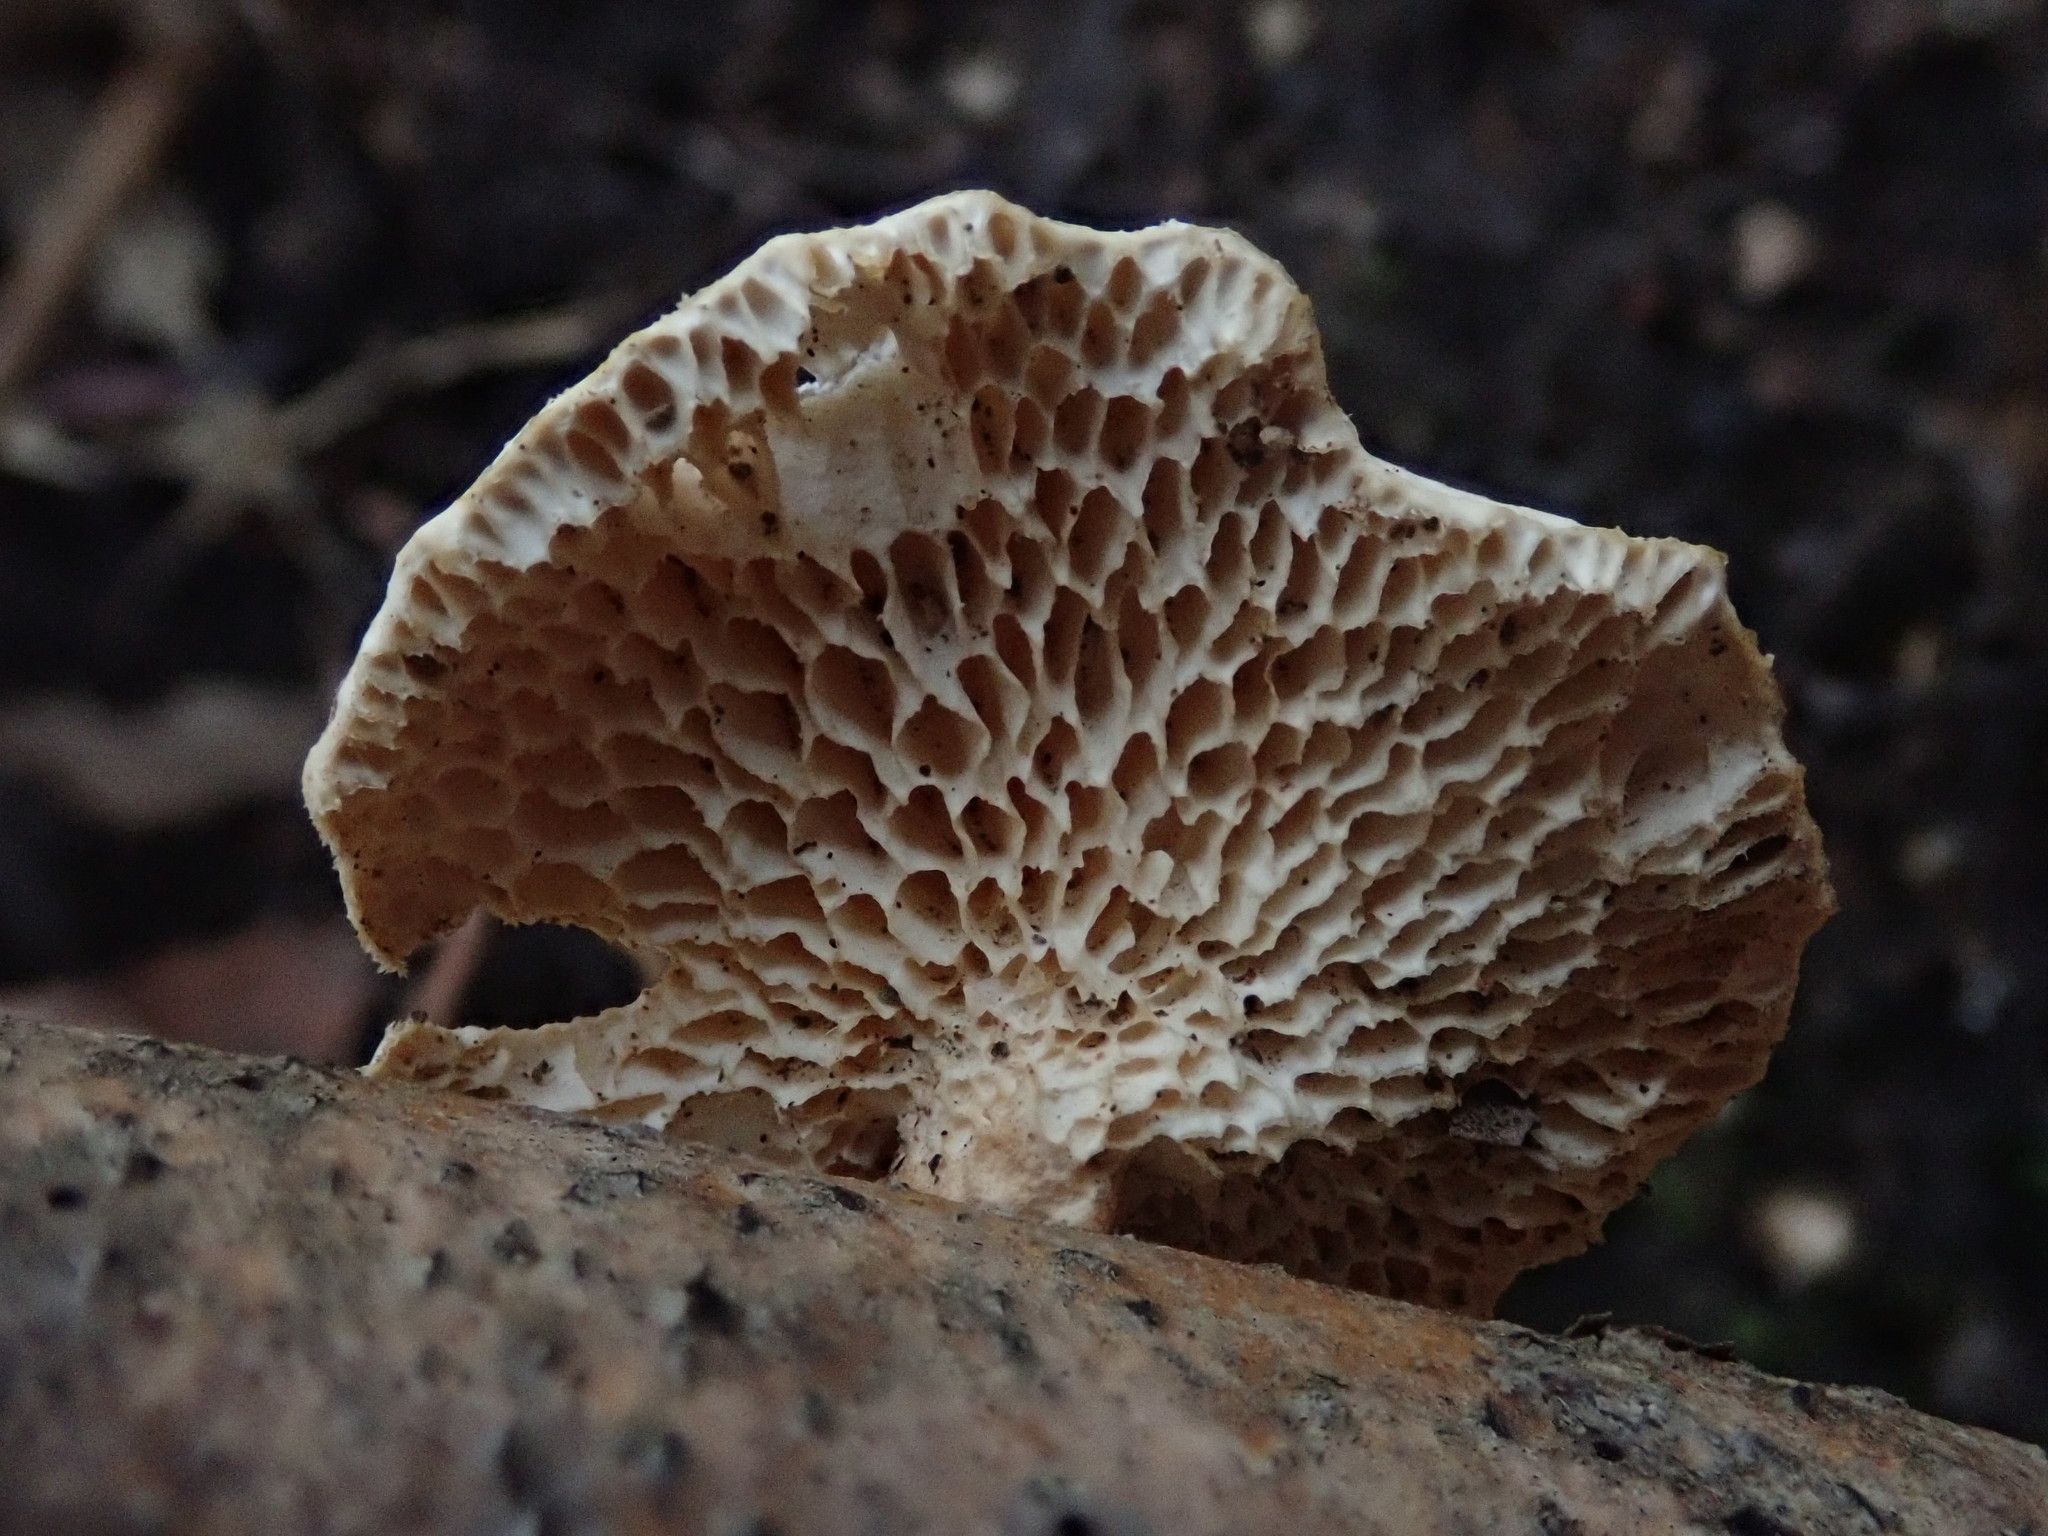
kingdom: Fungi
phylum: Basidiomycota
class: Agaricomycetes
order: Polyporales
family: Polyporaceae
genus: Neofavolus
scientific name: Neofavolus alveolaris
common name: Hexagonal-pored polypore
